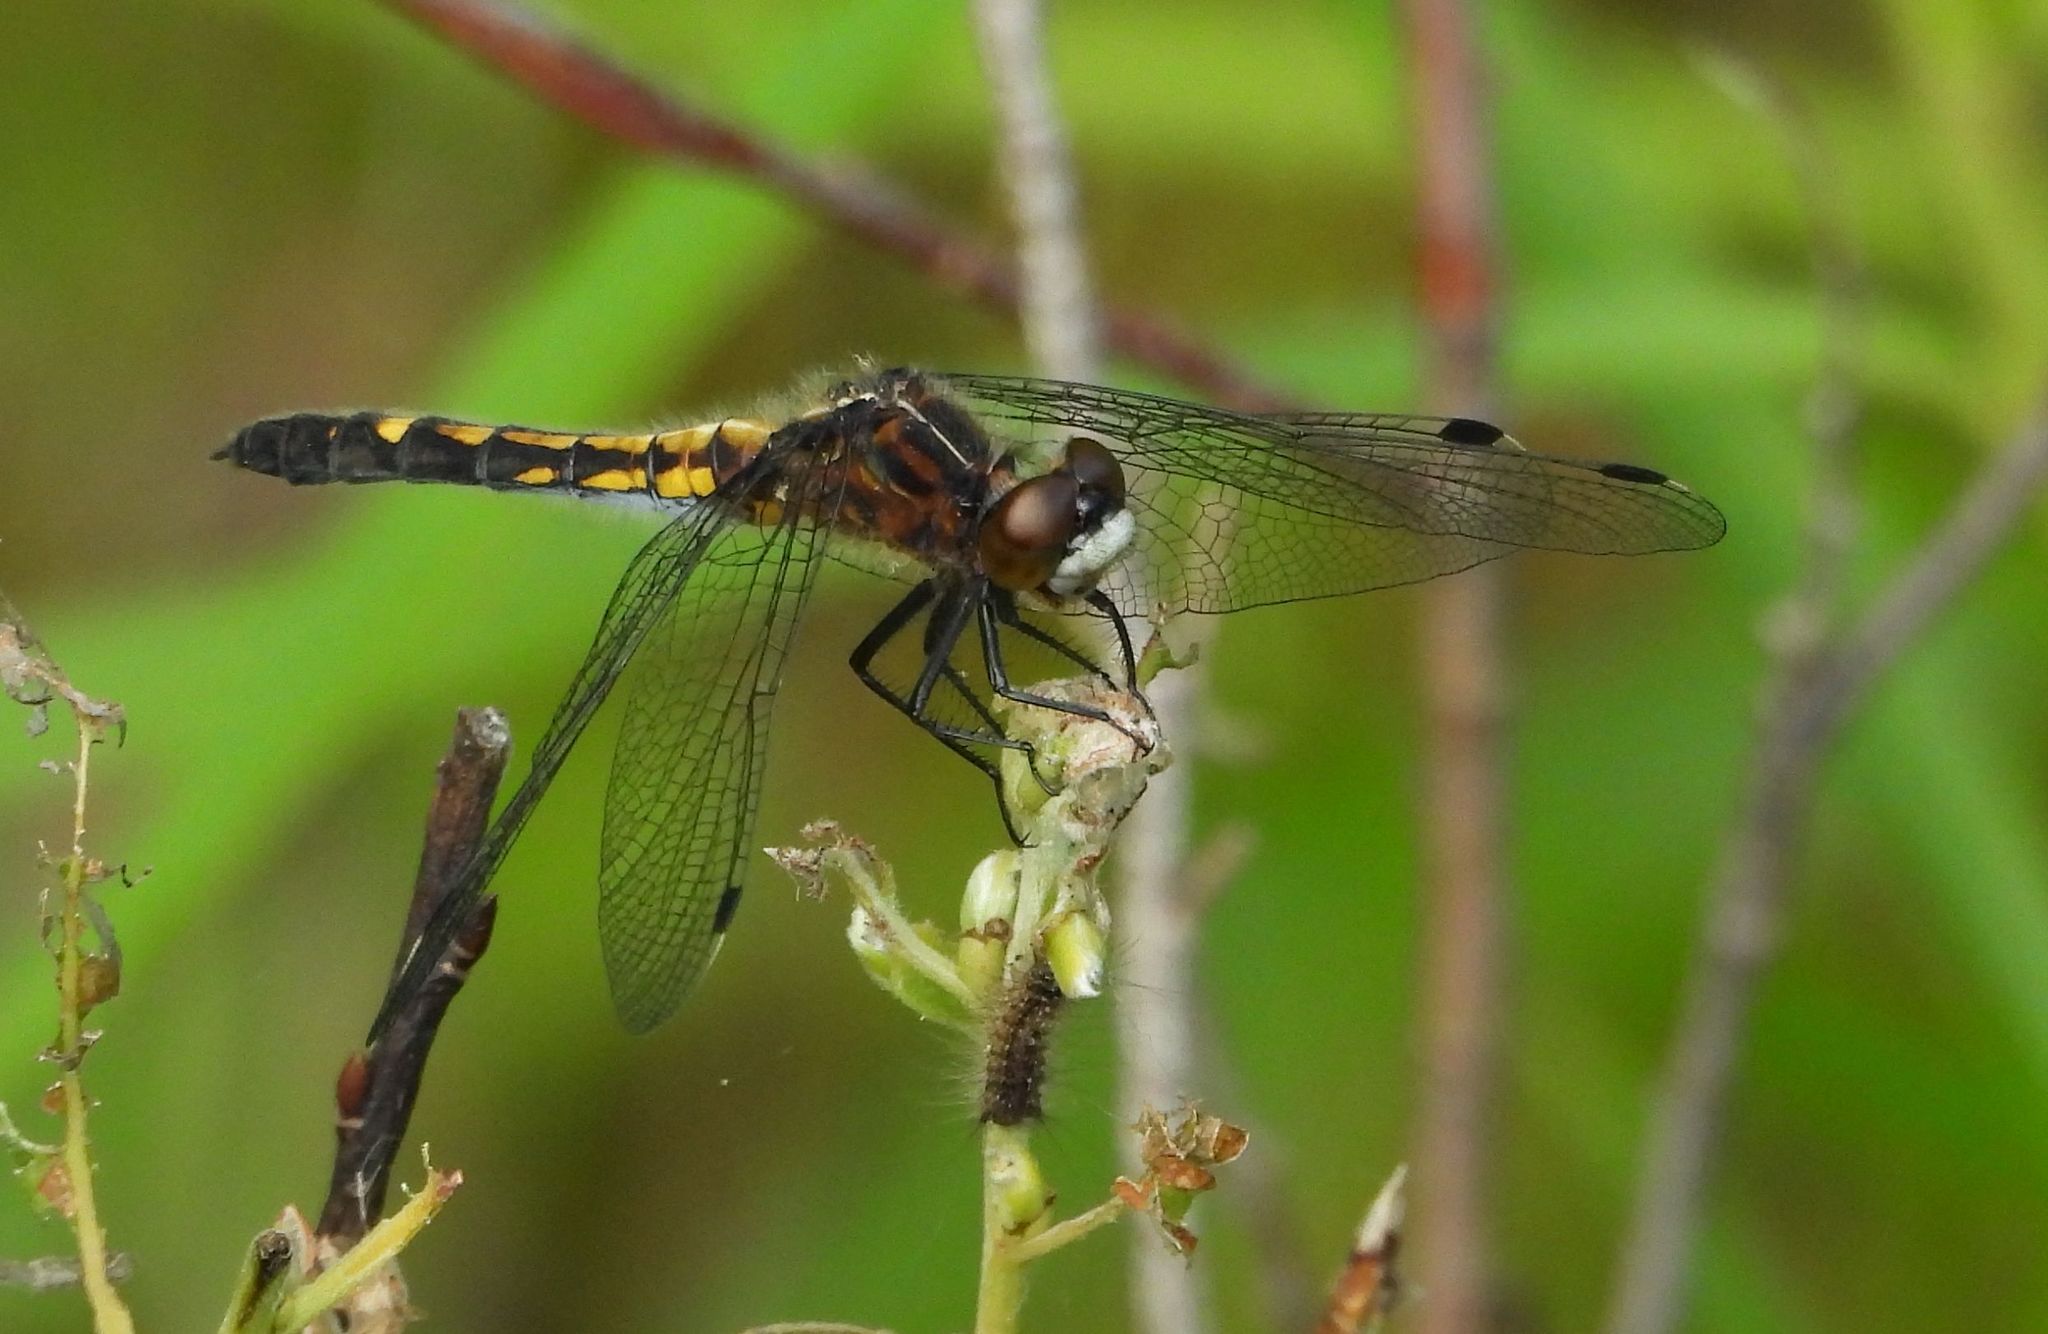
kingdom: Animalia
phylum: Arthropoda
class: Insecta
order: Odonata
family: Libellulidae
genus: Leucorrhinia
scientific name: Leucorrhinia intacta
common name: Dot-tailed whiteface
